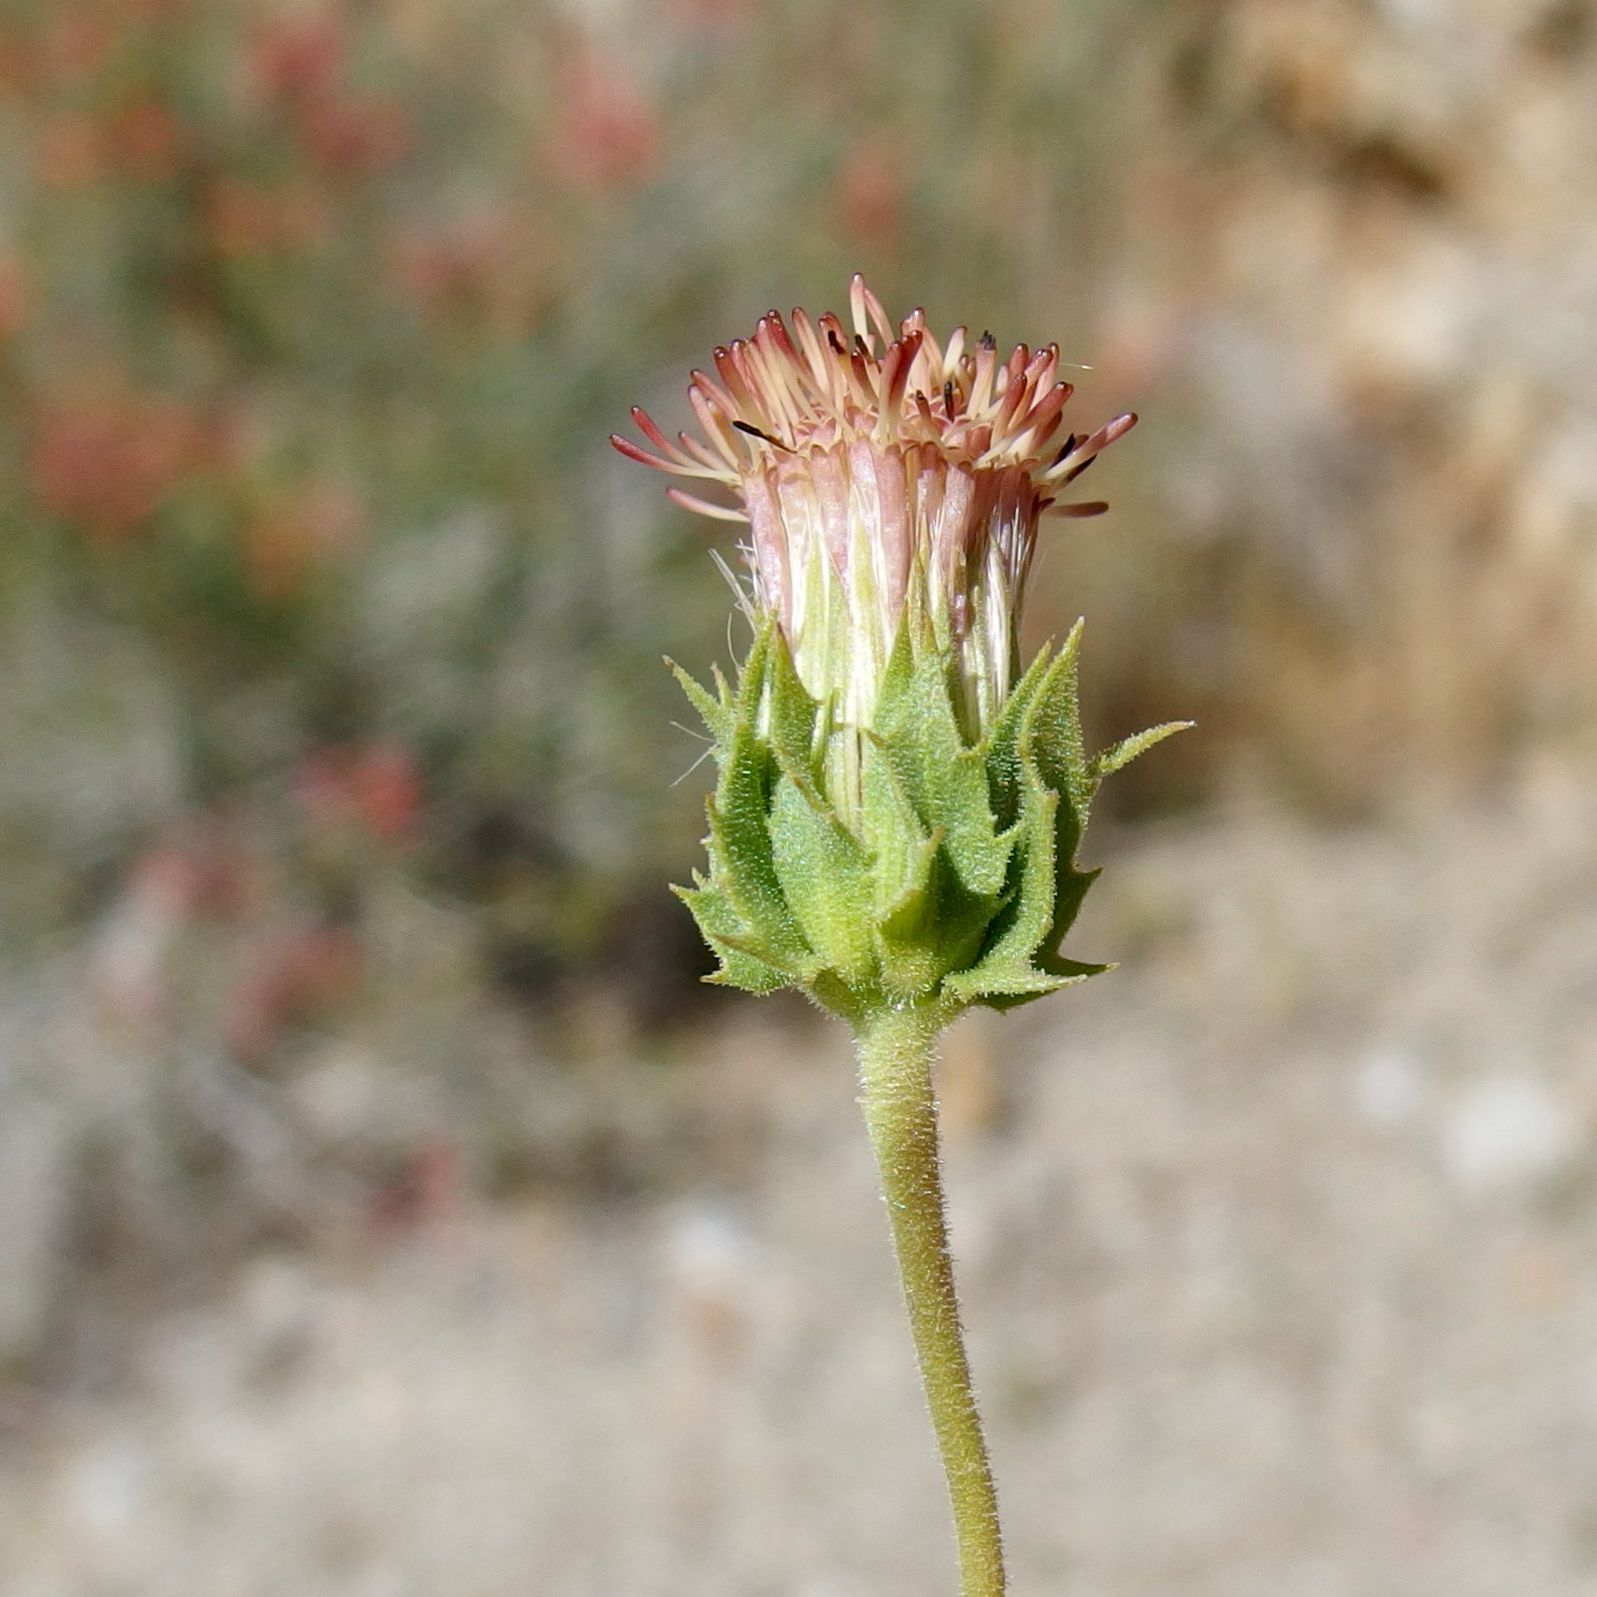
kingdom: Plantae
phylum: Tracheophyta
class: Magnoliopsida
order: Asterales
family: Asteraceae
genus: Brickellia
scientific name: Brickellia atractyloides
